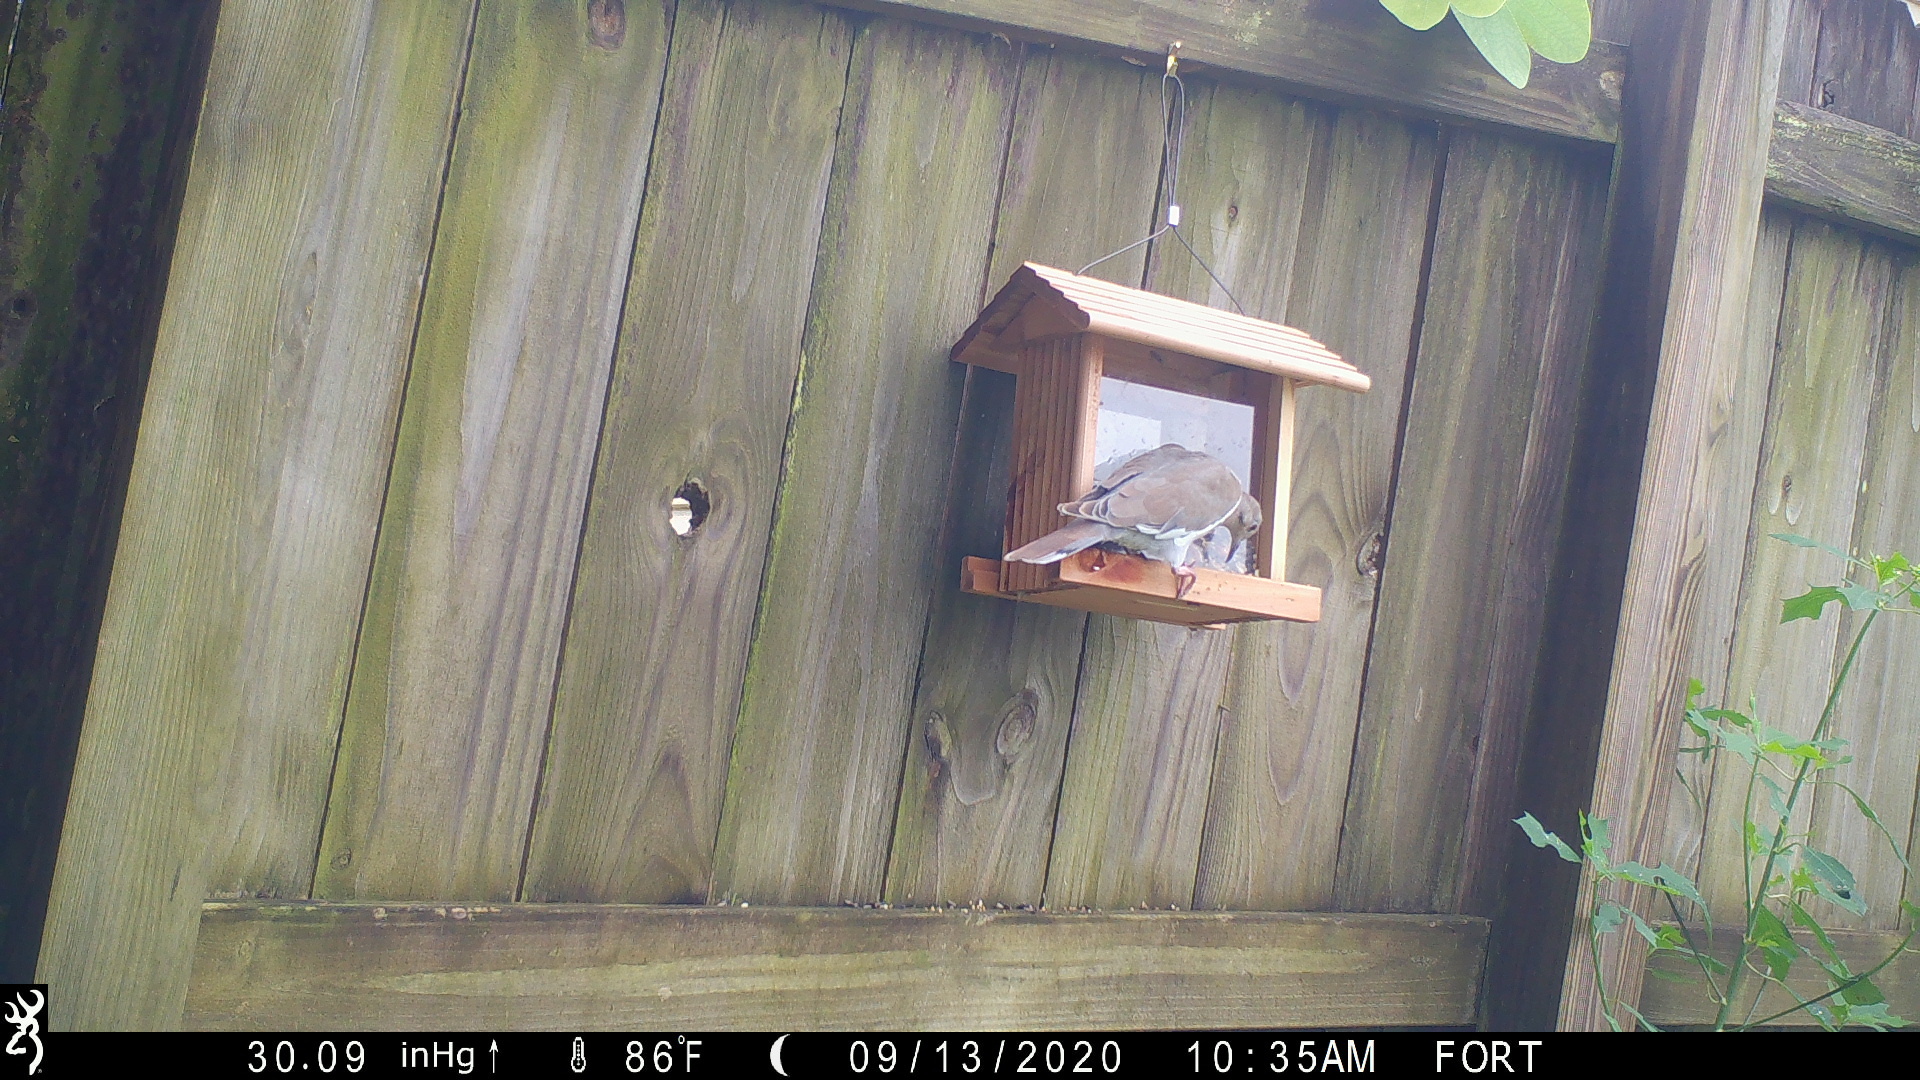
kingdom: Animalia
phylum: Chordata
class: Aves
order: Columbiformes
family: Columbidae
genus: Zenaida
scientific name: Zenaida asiatica
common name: White-winged dove
